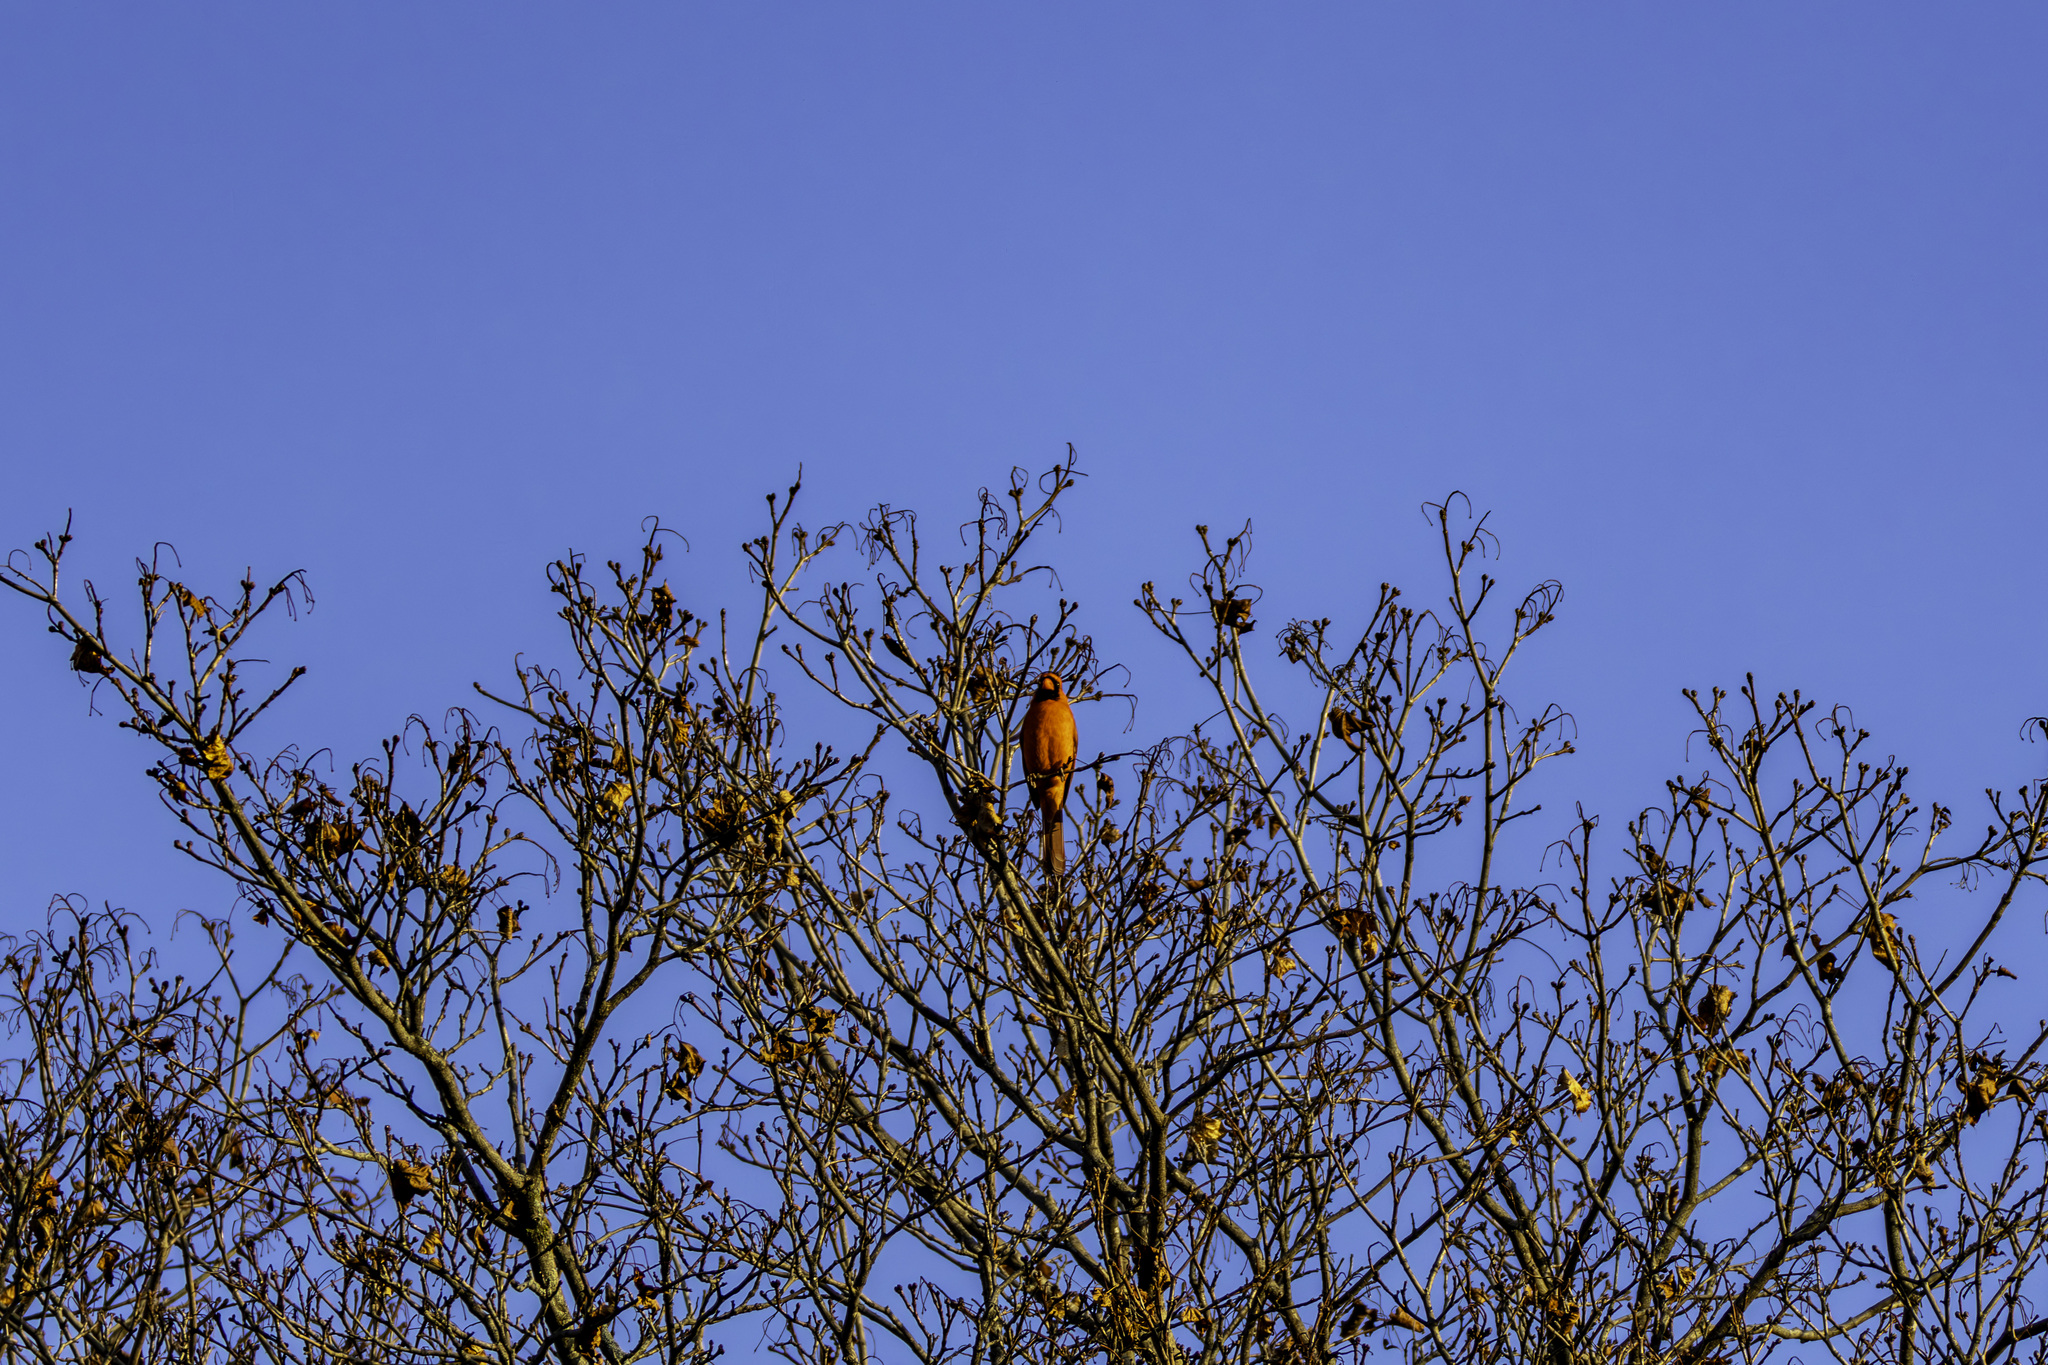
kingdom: Animalia
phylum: Chordata
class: Aves
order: Passeriformes
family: Cardinalidae
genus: Cardinalis
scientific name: Cardinalis cardinalis
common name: Northern cardinal
